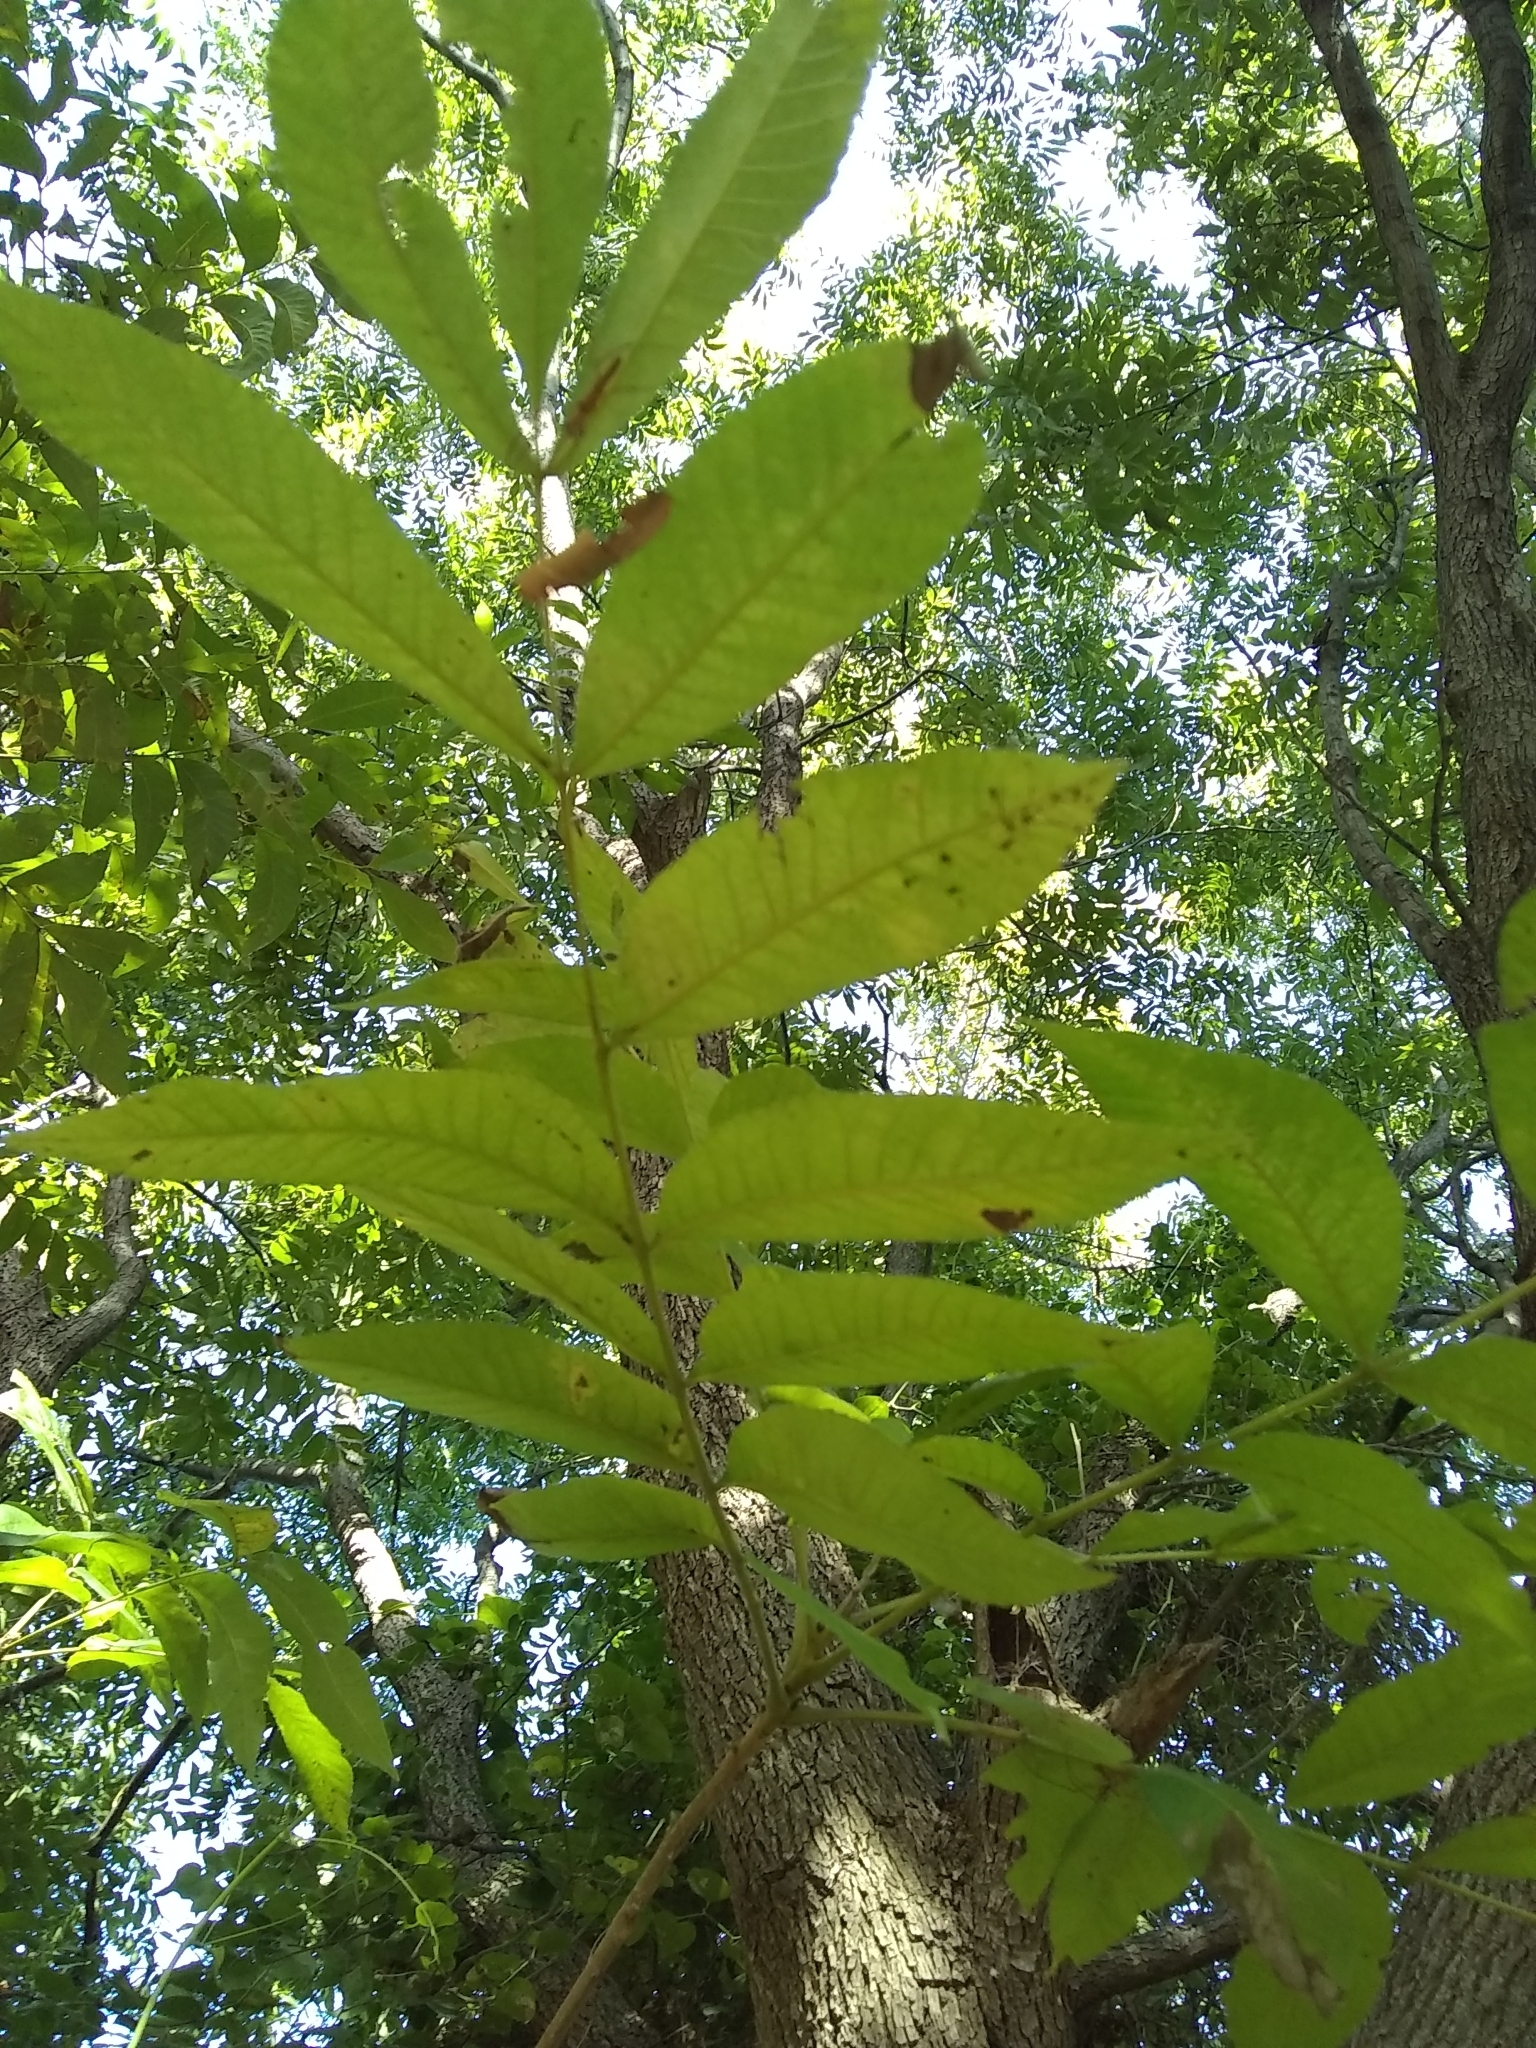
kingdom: Plantae
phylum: Tracheophyta
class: Magnoliopsida
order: Fagales
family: Juglandaceae
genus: Carya
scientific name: Carya illinoinensis
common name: Pecan
